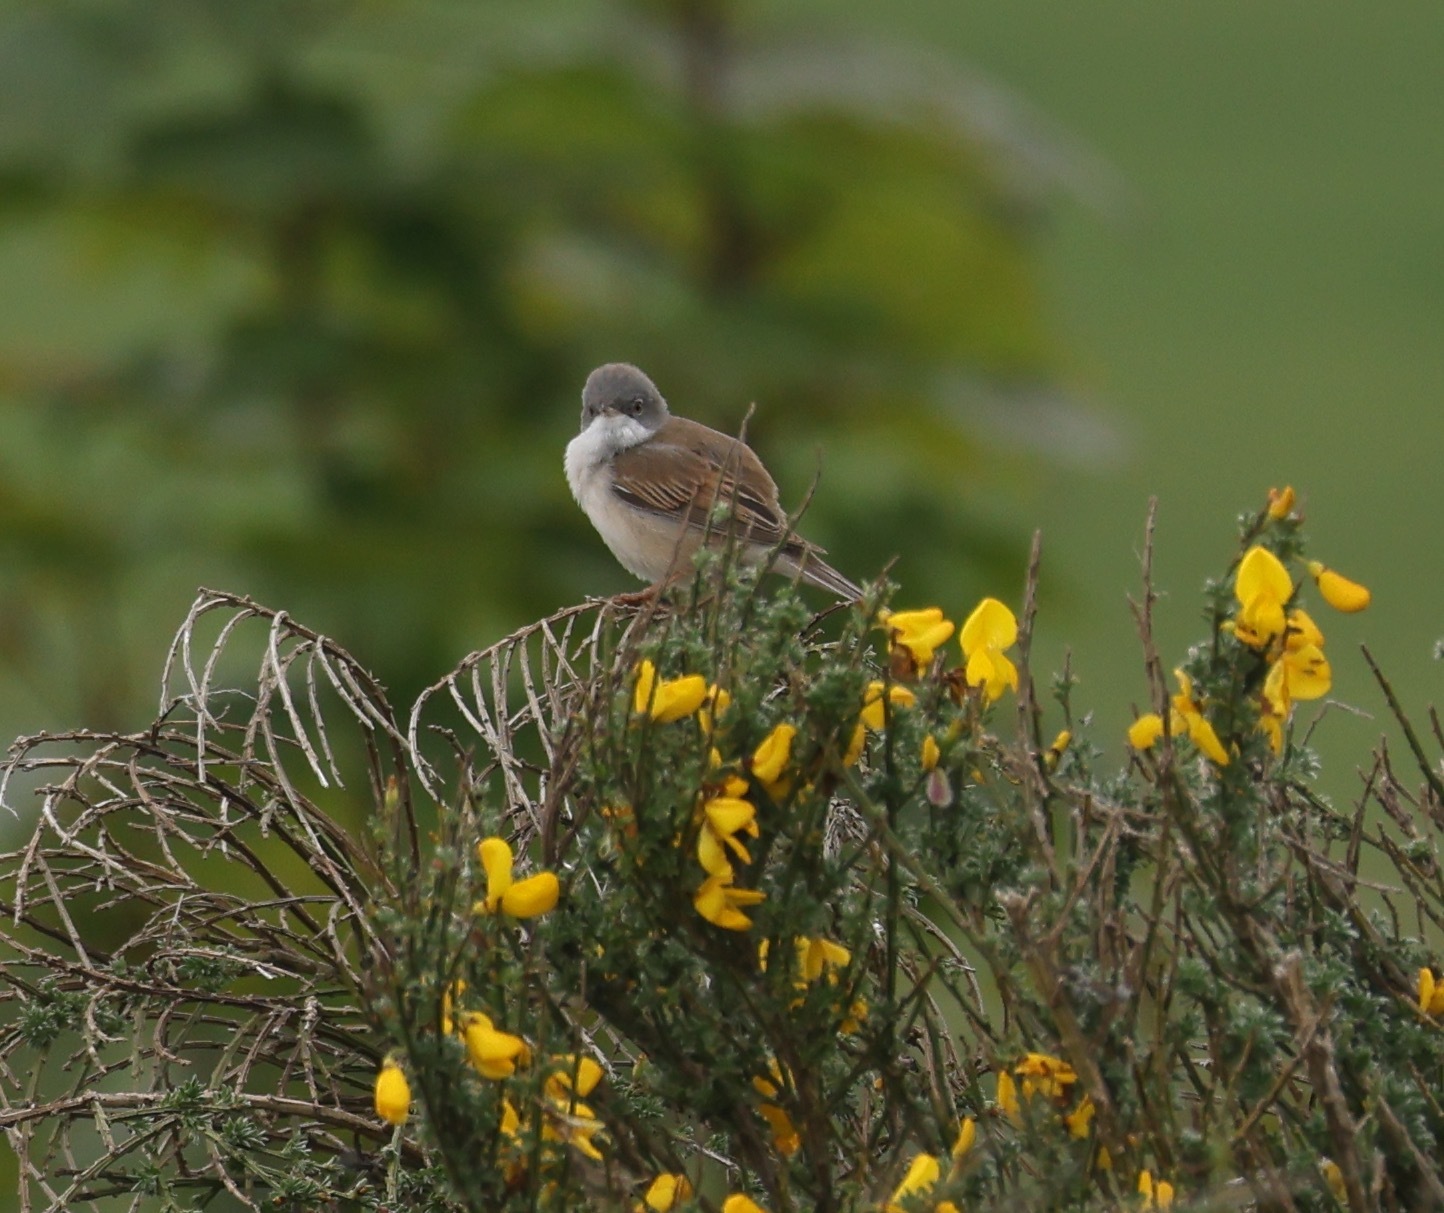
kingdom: Animalia
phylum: Chordata
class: Aves
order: Passeriformes
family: Sylviidae
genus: Sylvia
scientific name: Sylvia communis
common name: Common whitethroat
